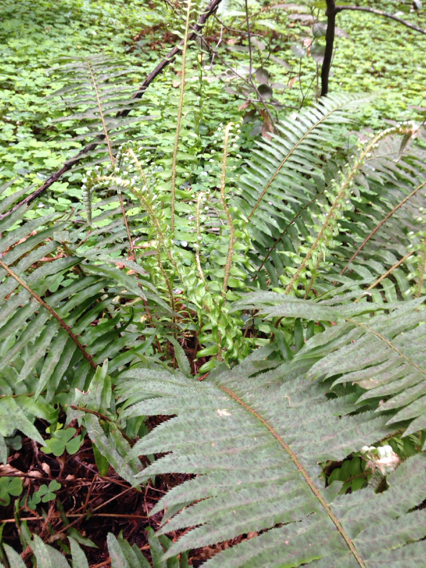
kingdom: Plantae
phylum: Tracheophyta
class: Polypodiopsida
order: Polypodiales
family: Dryopteridaceae
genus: Polystichum
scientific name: Polystichum munitum
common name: Western sword-fern
